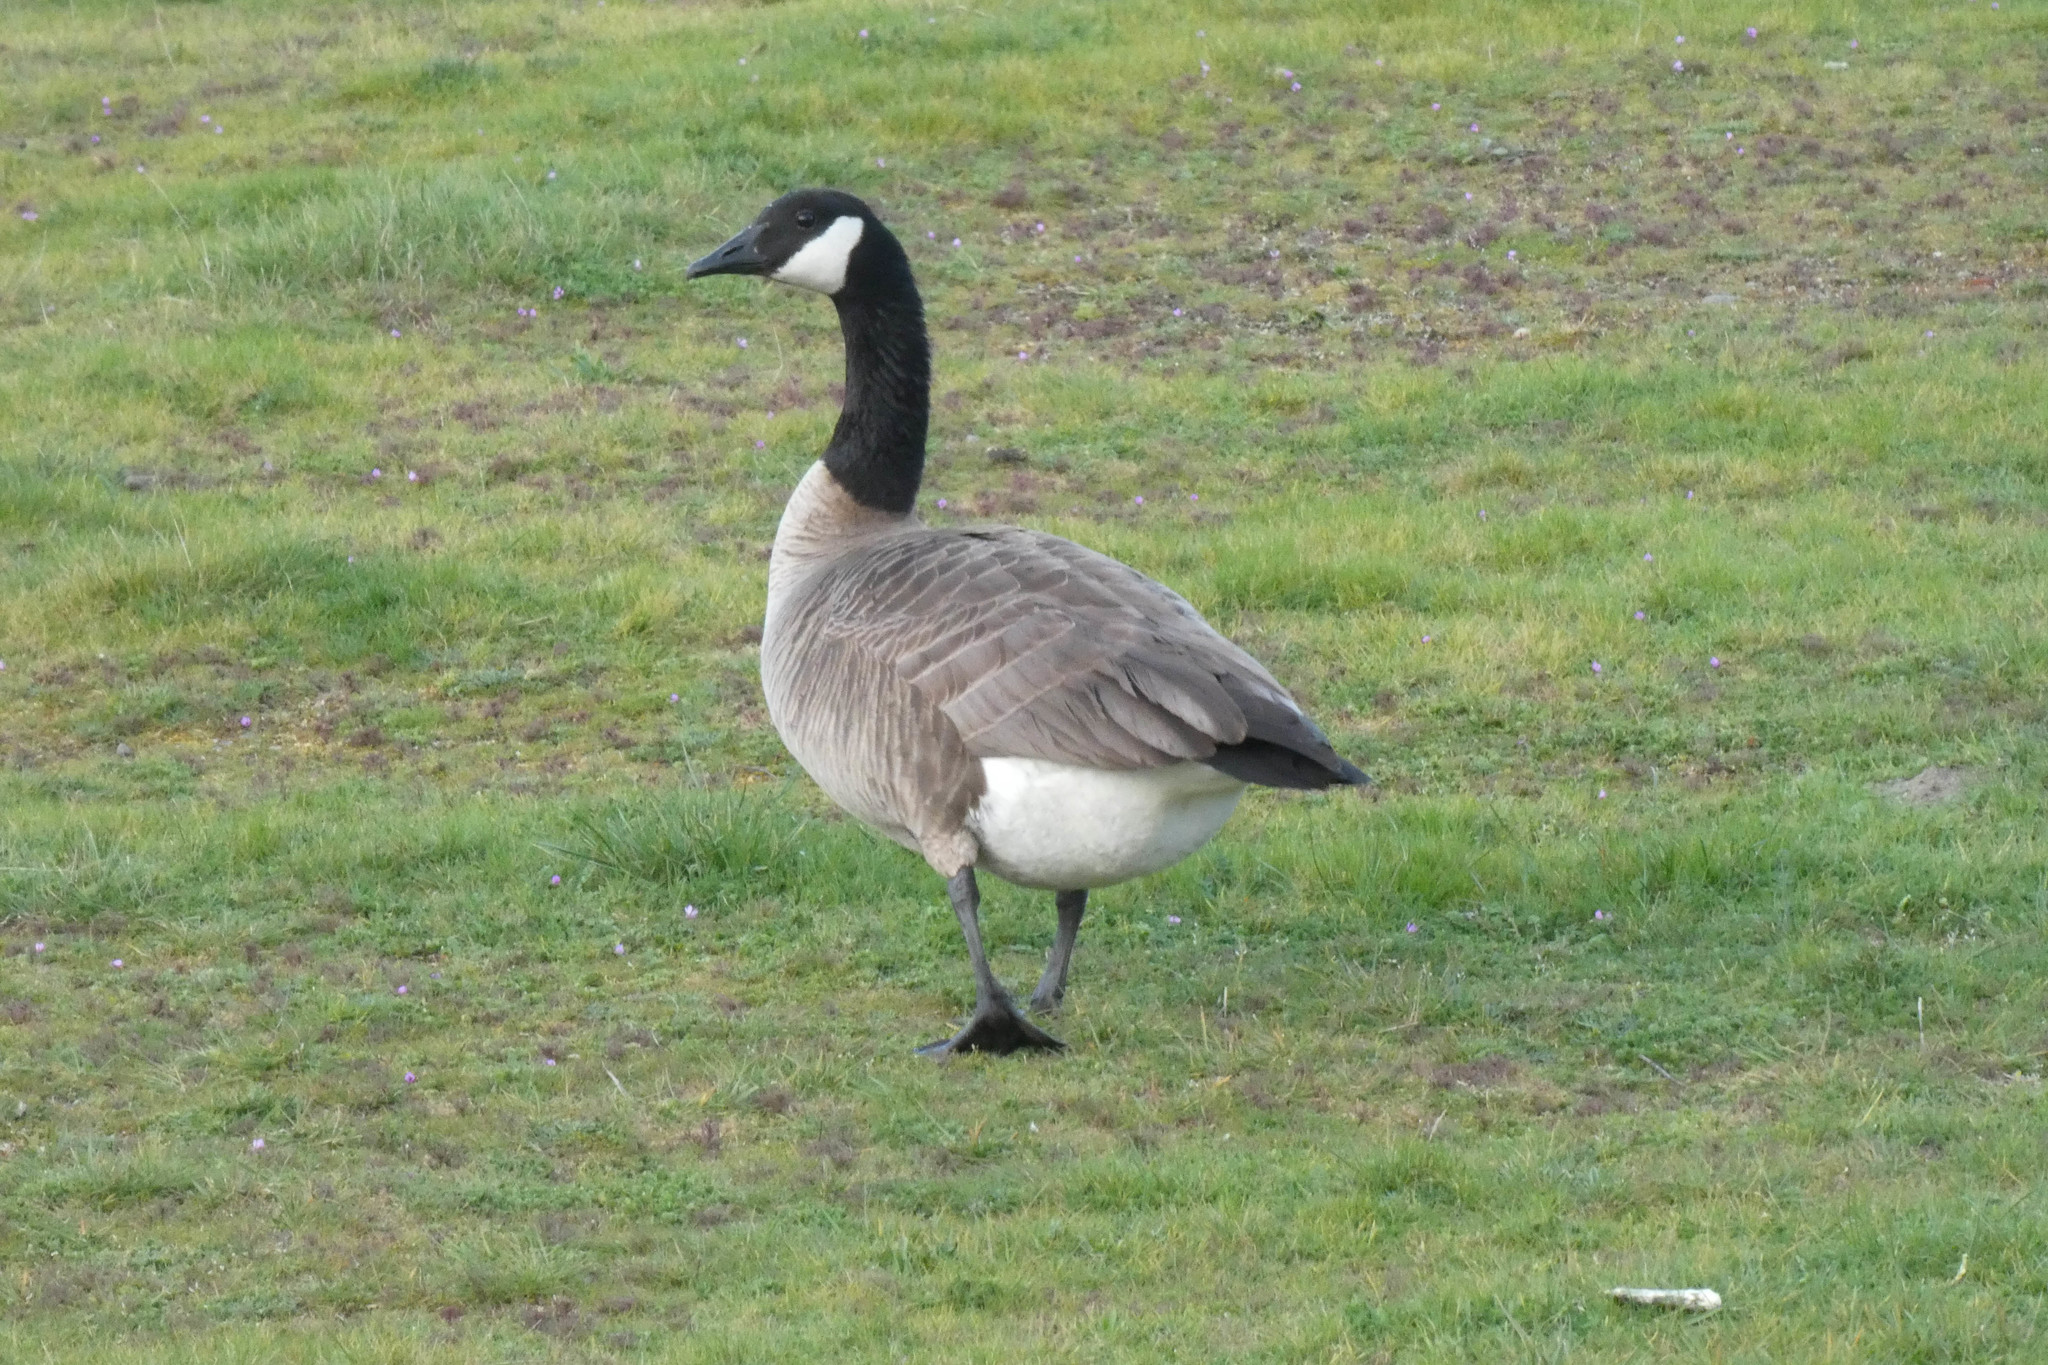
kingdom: Animalia
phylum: Chordata
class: Aves
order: Anseriformes
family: Anatidae
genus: Branta
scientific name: Branta canadensis
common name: Canada goose
